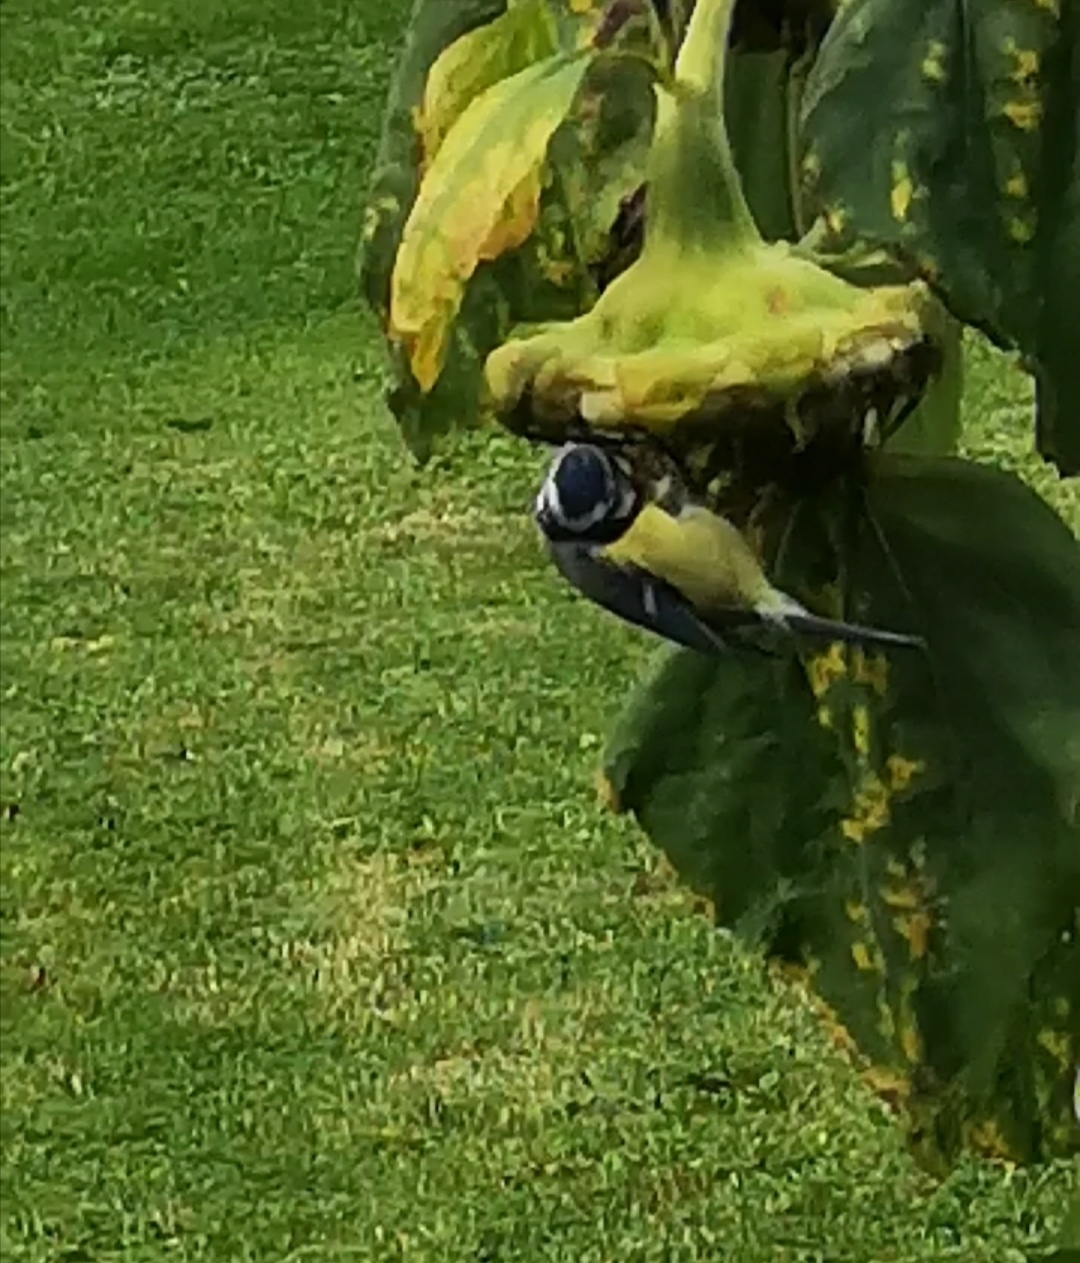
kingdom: Animalia
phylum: Chordata
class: Aves
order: Passeriformes
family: Paridae
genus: Cyanistes
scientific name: Cyanistes caeruleus
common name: Eurasian blue tit
